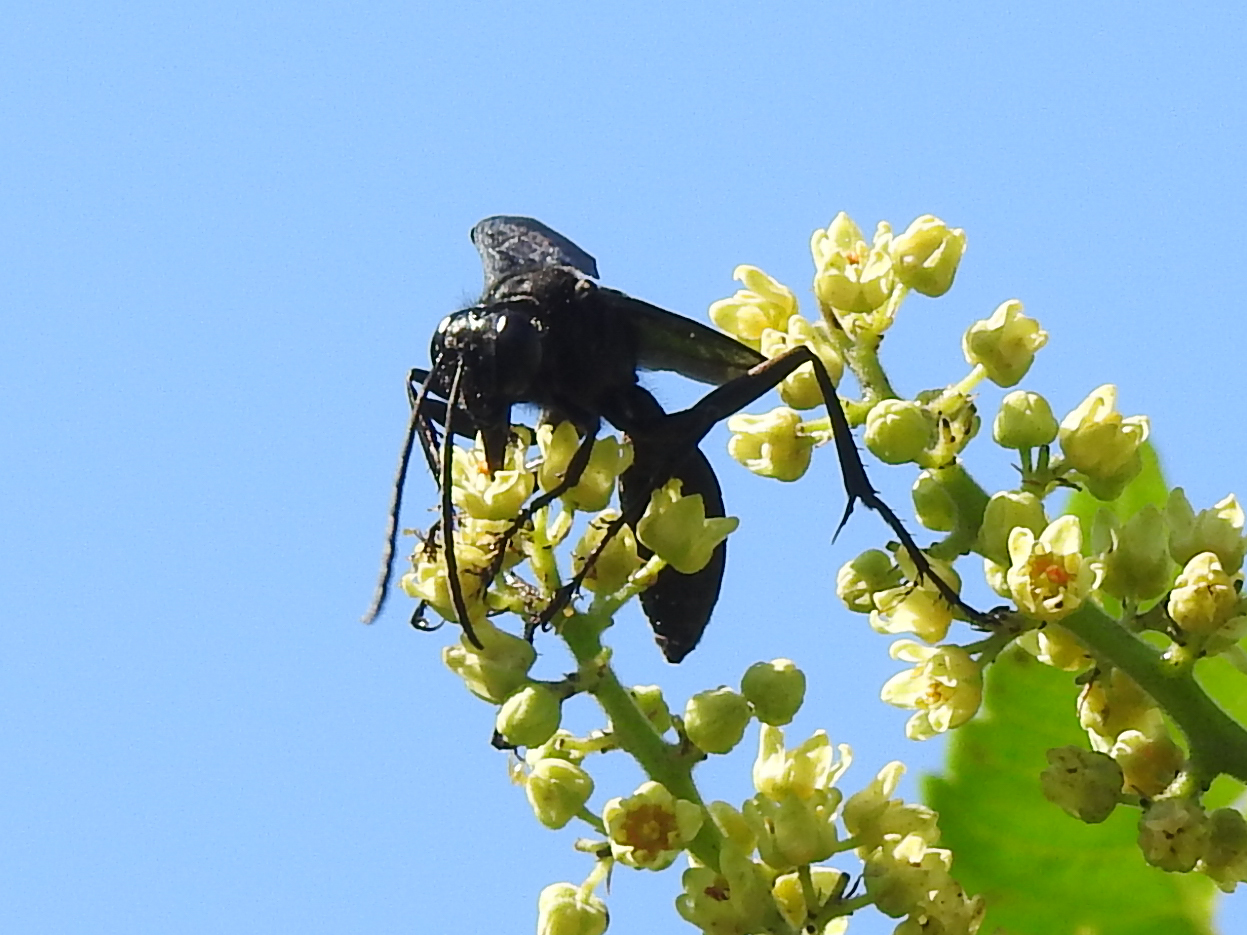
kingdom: Animalia
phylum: Arthropoda
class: Insecta
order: Hymenoptera
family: Sphecidae
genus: Sphex
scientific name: Sphex pensylvanicus
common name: Great black digger wasp
